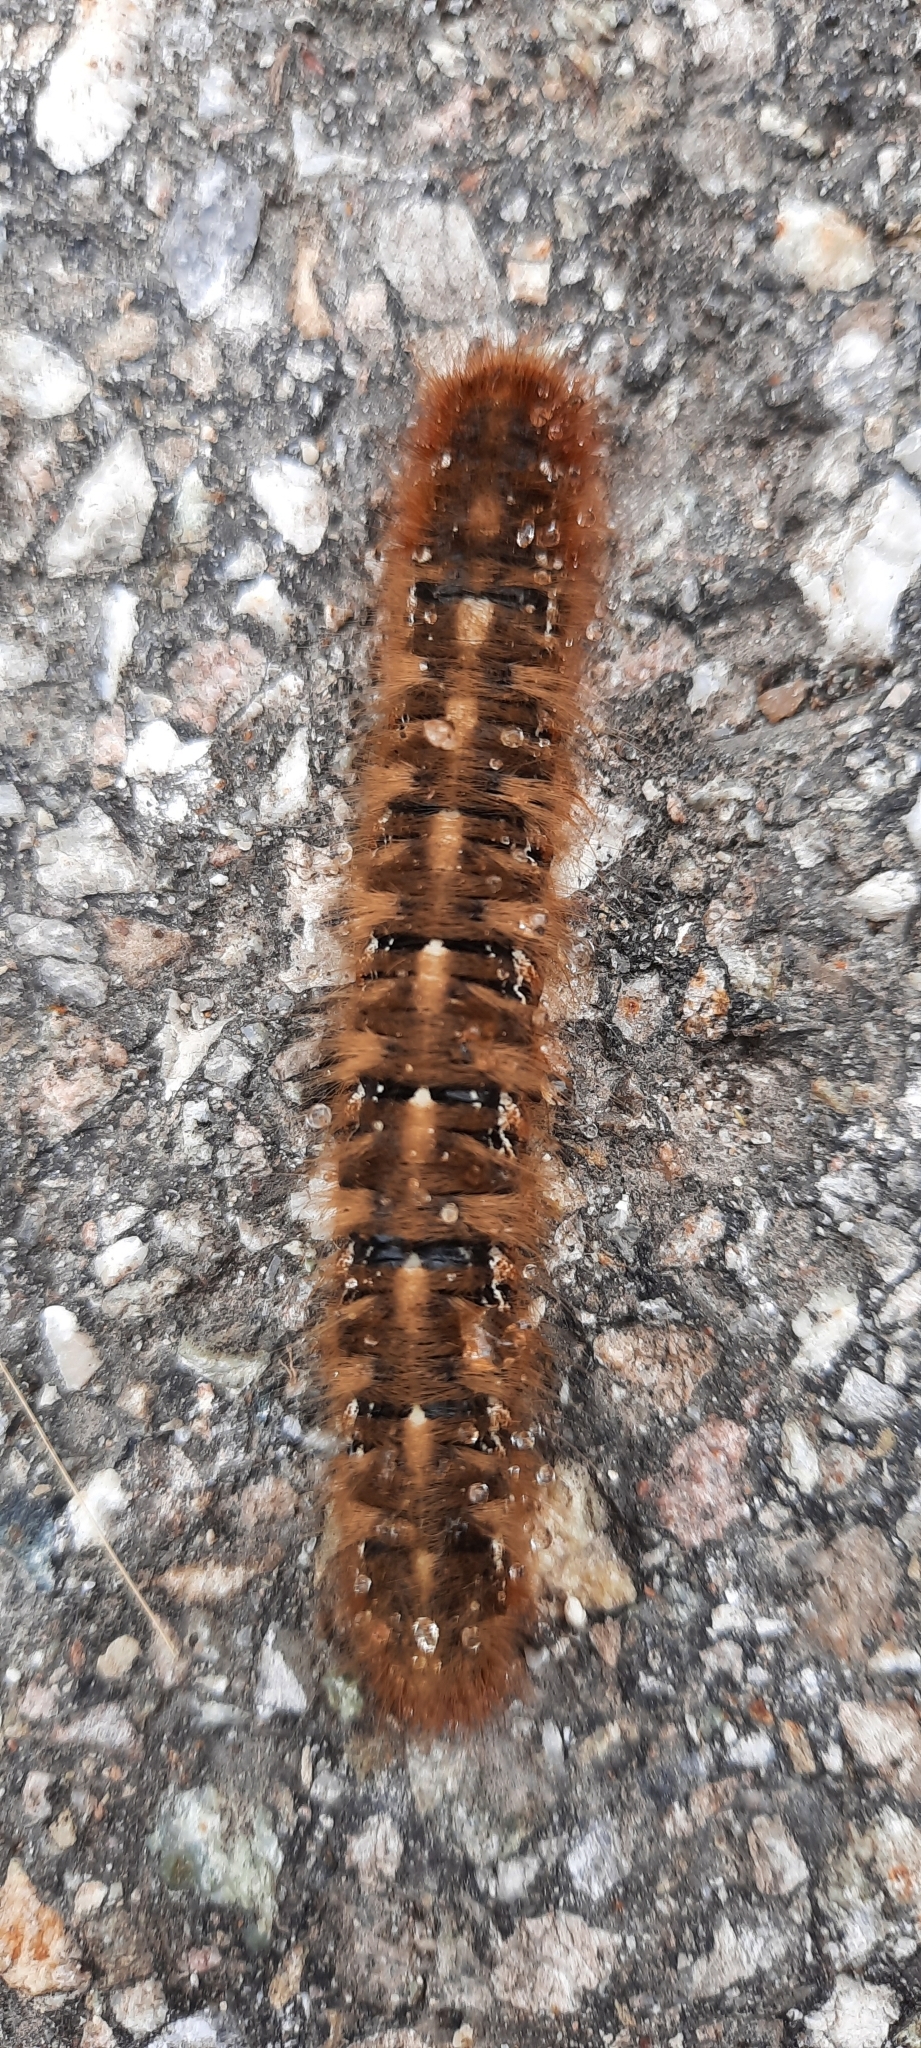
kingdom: Animalia
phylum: Arthropoda
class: Insecta
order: Lepidoptera
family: Lasiocampidae
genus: Lasiocampa
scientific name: Lasiocampa quercus
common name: Oak eggar
